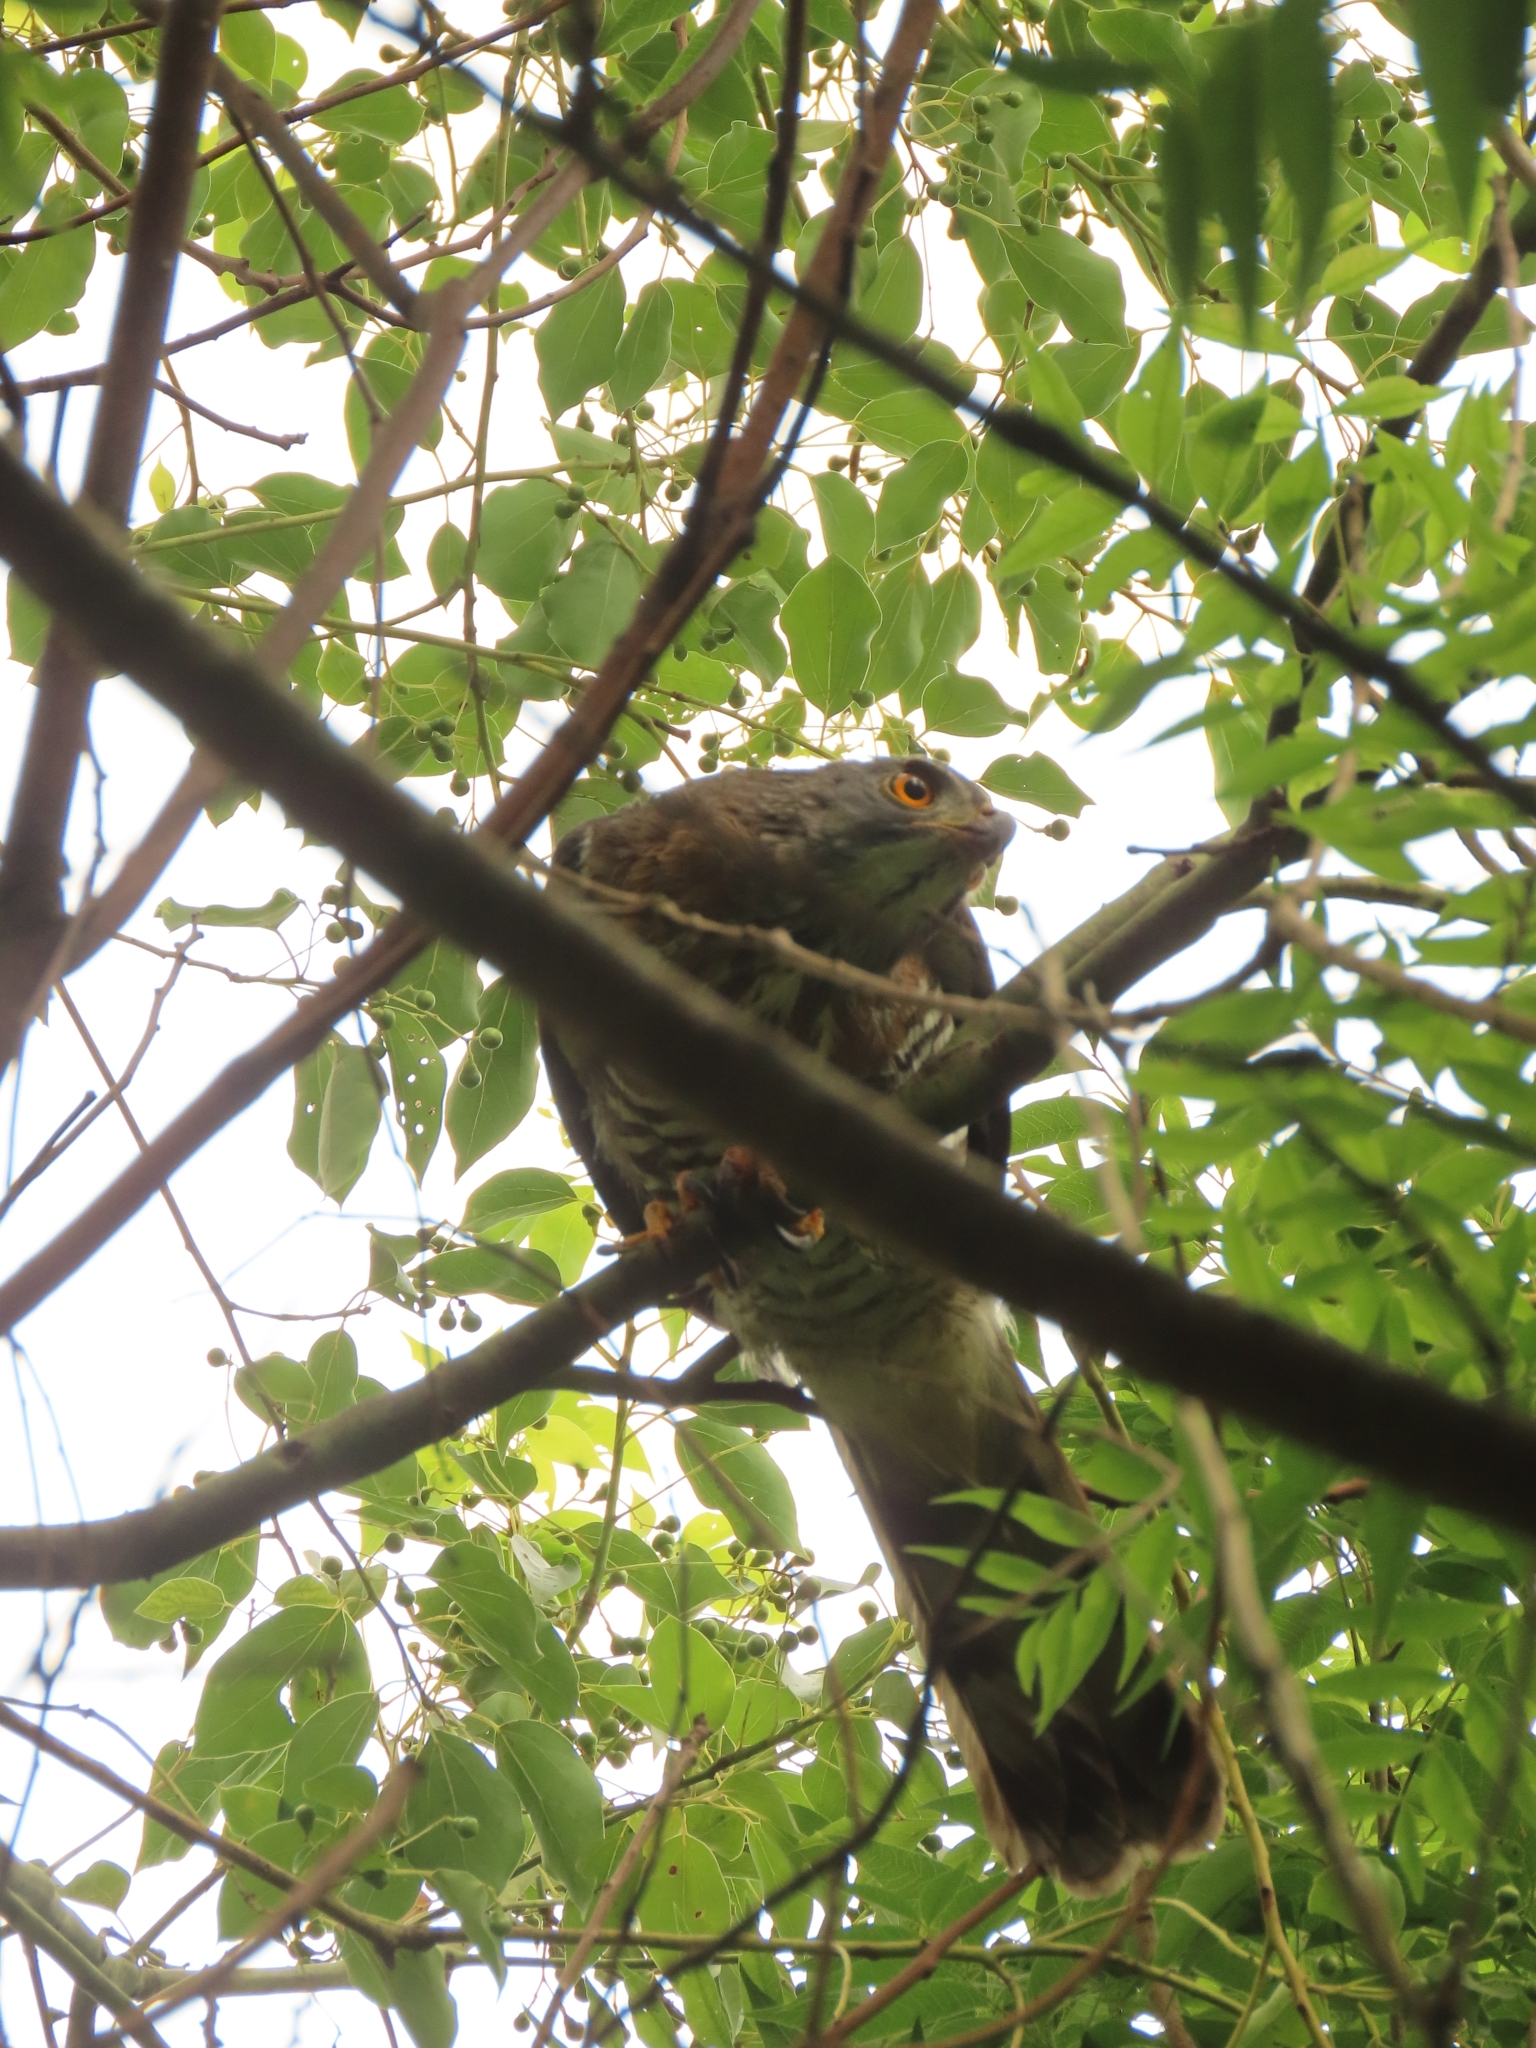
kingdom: Animalia
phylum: Chordata
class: Aves
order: Accipitriformes
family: Accipitridae
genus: Accipiter
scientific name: Accipiter trivirgatus
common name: Crested goshawk
